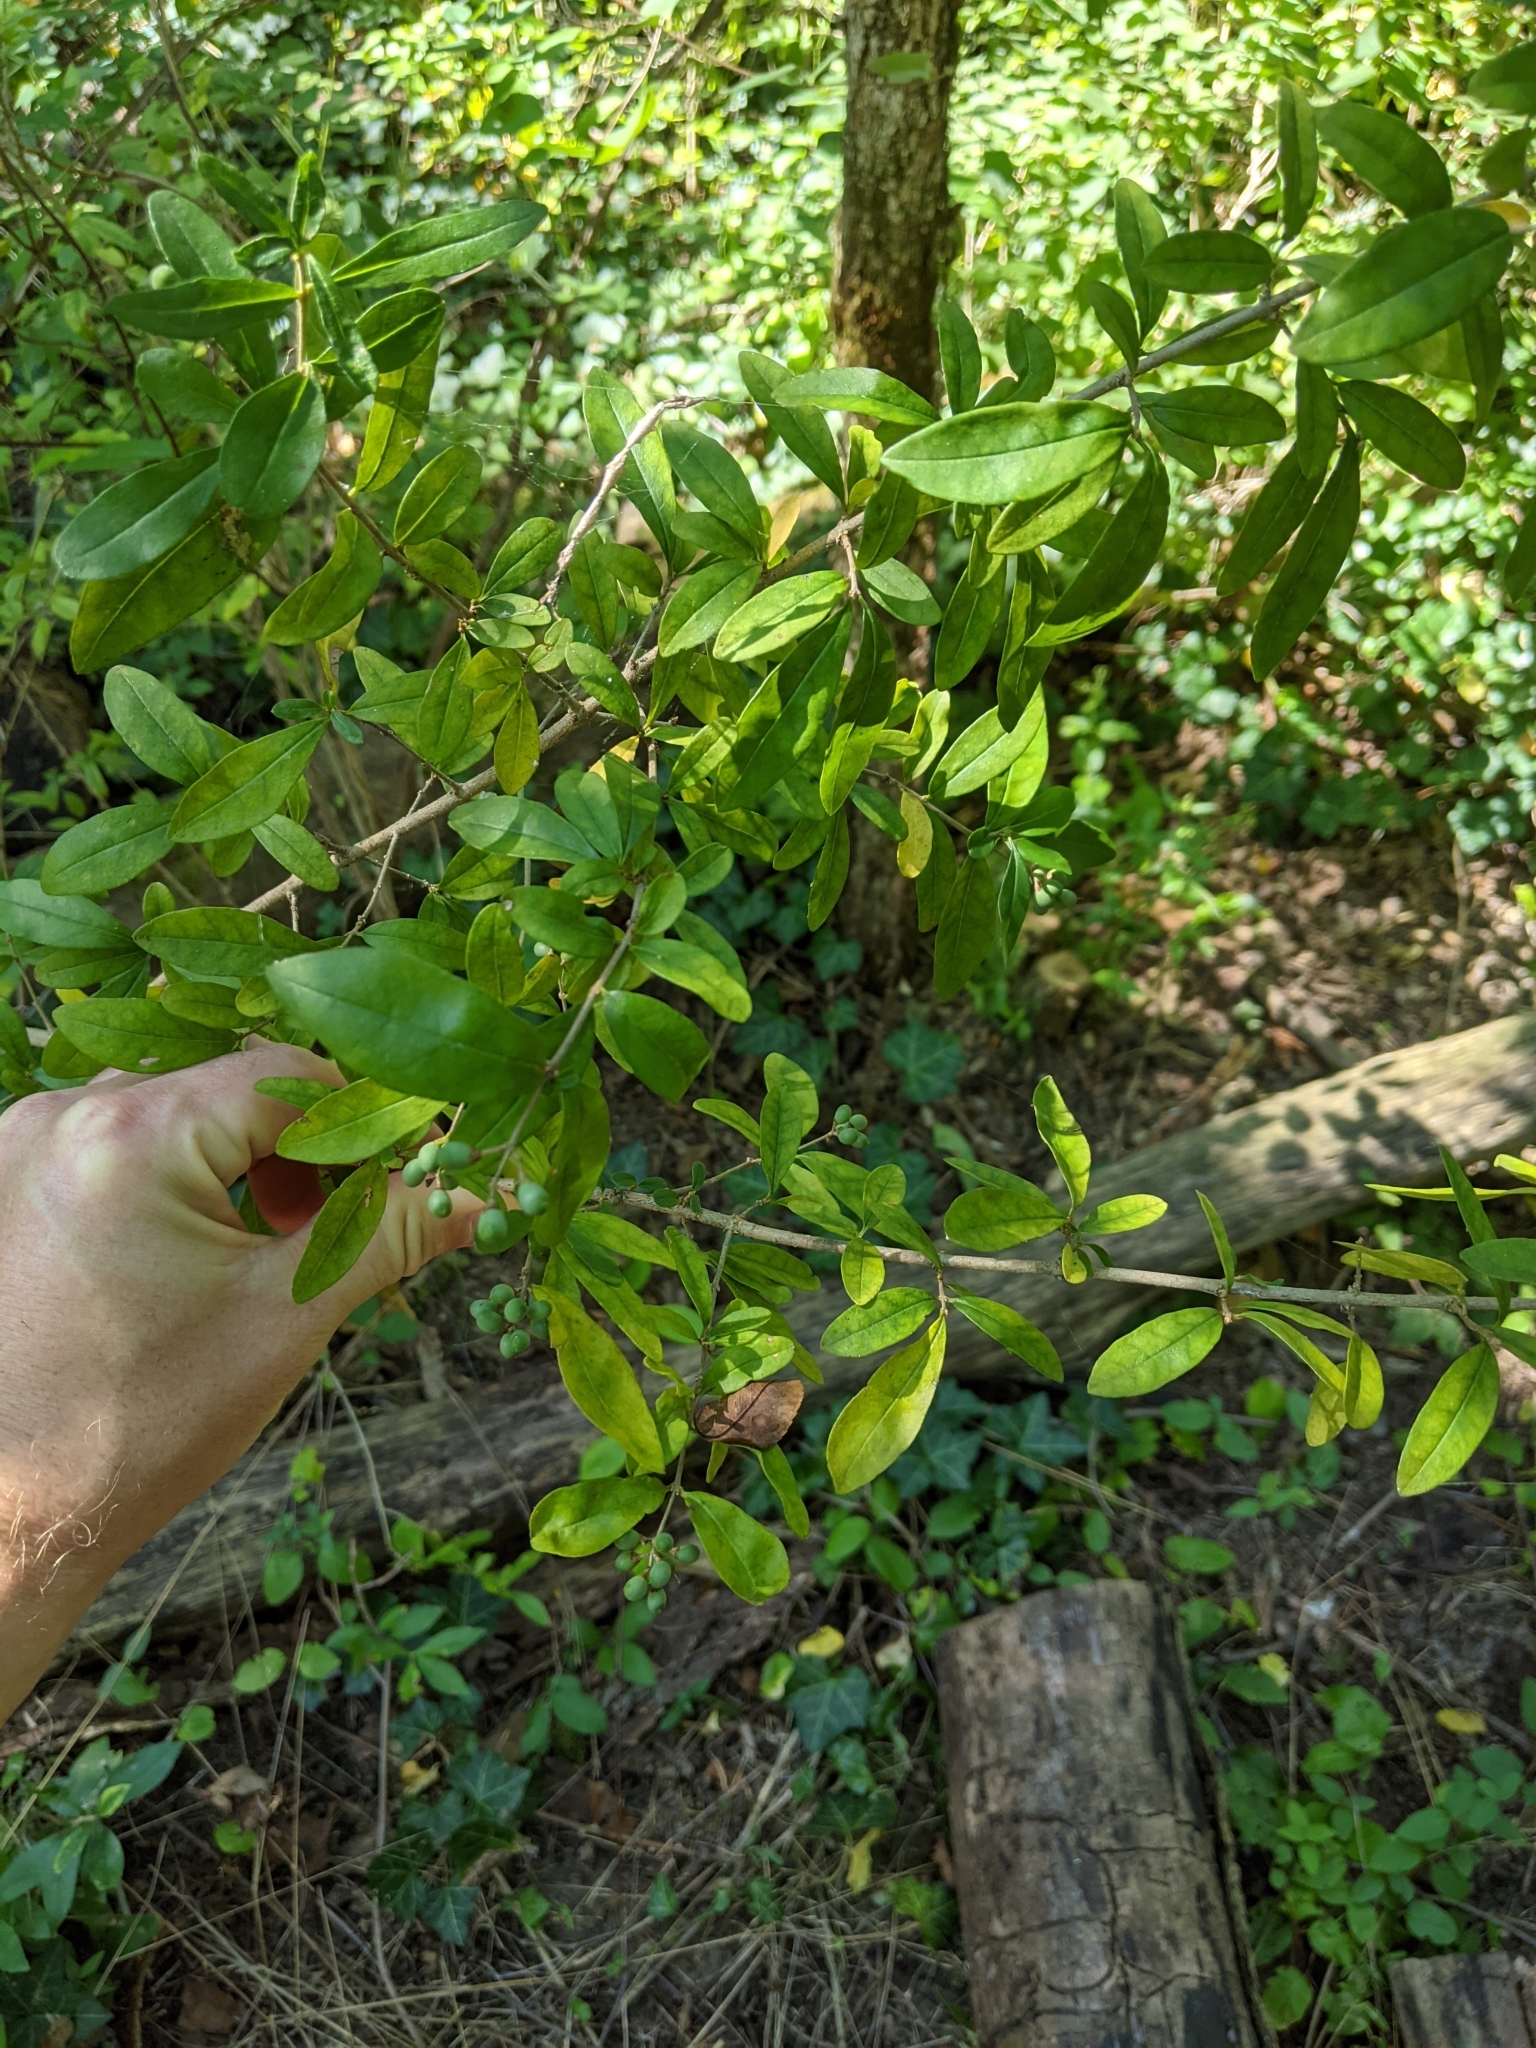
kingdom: Plantae
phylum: Tracheophyta
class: Magnoliopsida
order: Lamiales
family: Oleaceae
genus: Ligustrum
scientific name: Ligustrum obtusifolium
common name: Border privet
